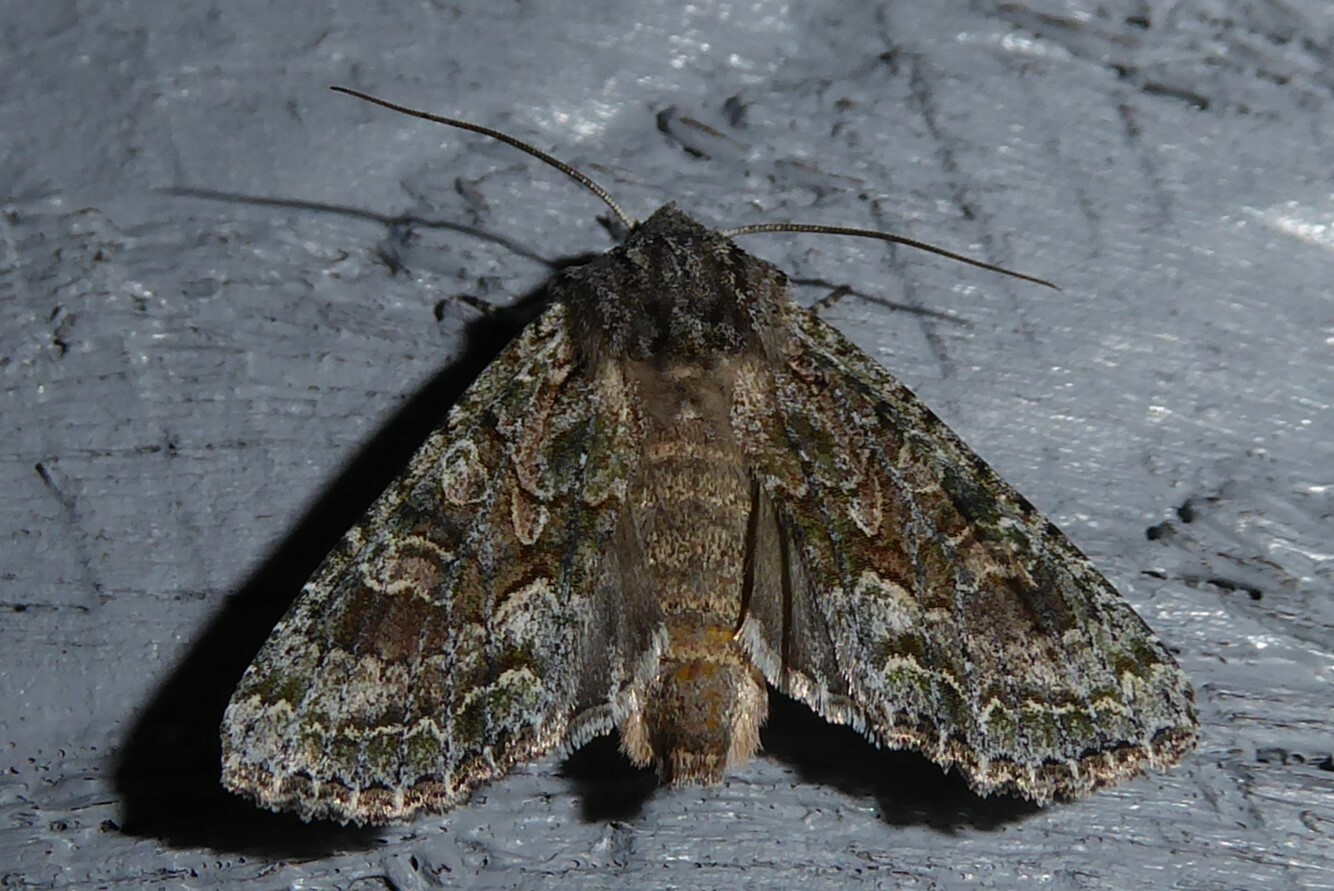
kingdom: Animalia
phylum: Arthropoda
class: Insecta
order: Lepidoptera
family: Noctuidae
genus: Ichneutica
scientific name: Ichneutica mutans
